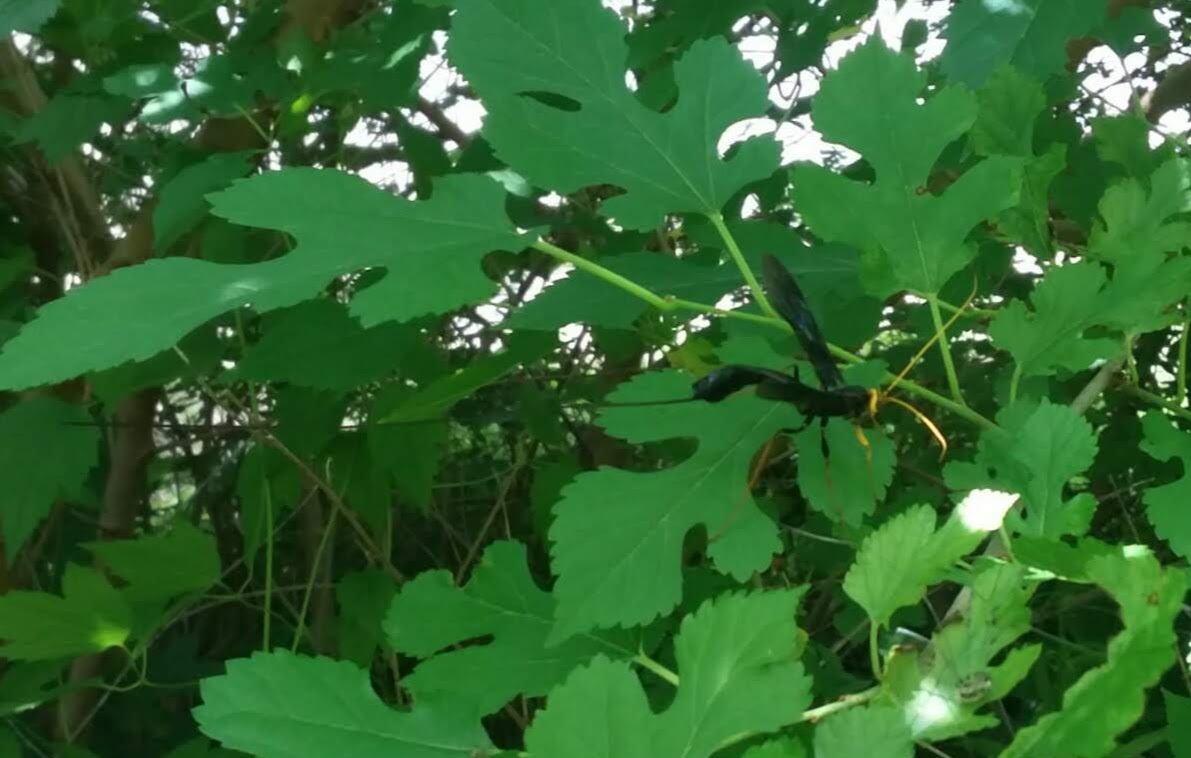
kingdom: Animalia
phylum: Arthropoda
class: Insecta
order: Hymenoptera
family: Ichneumonidae
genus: Megarhyssa
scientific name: Megarhyssa atrata
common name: Black giant ichneumonid wasp
